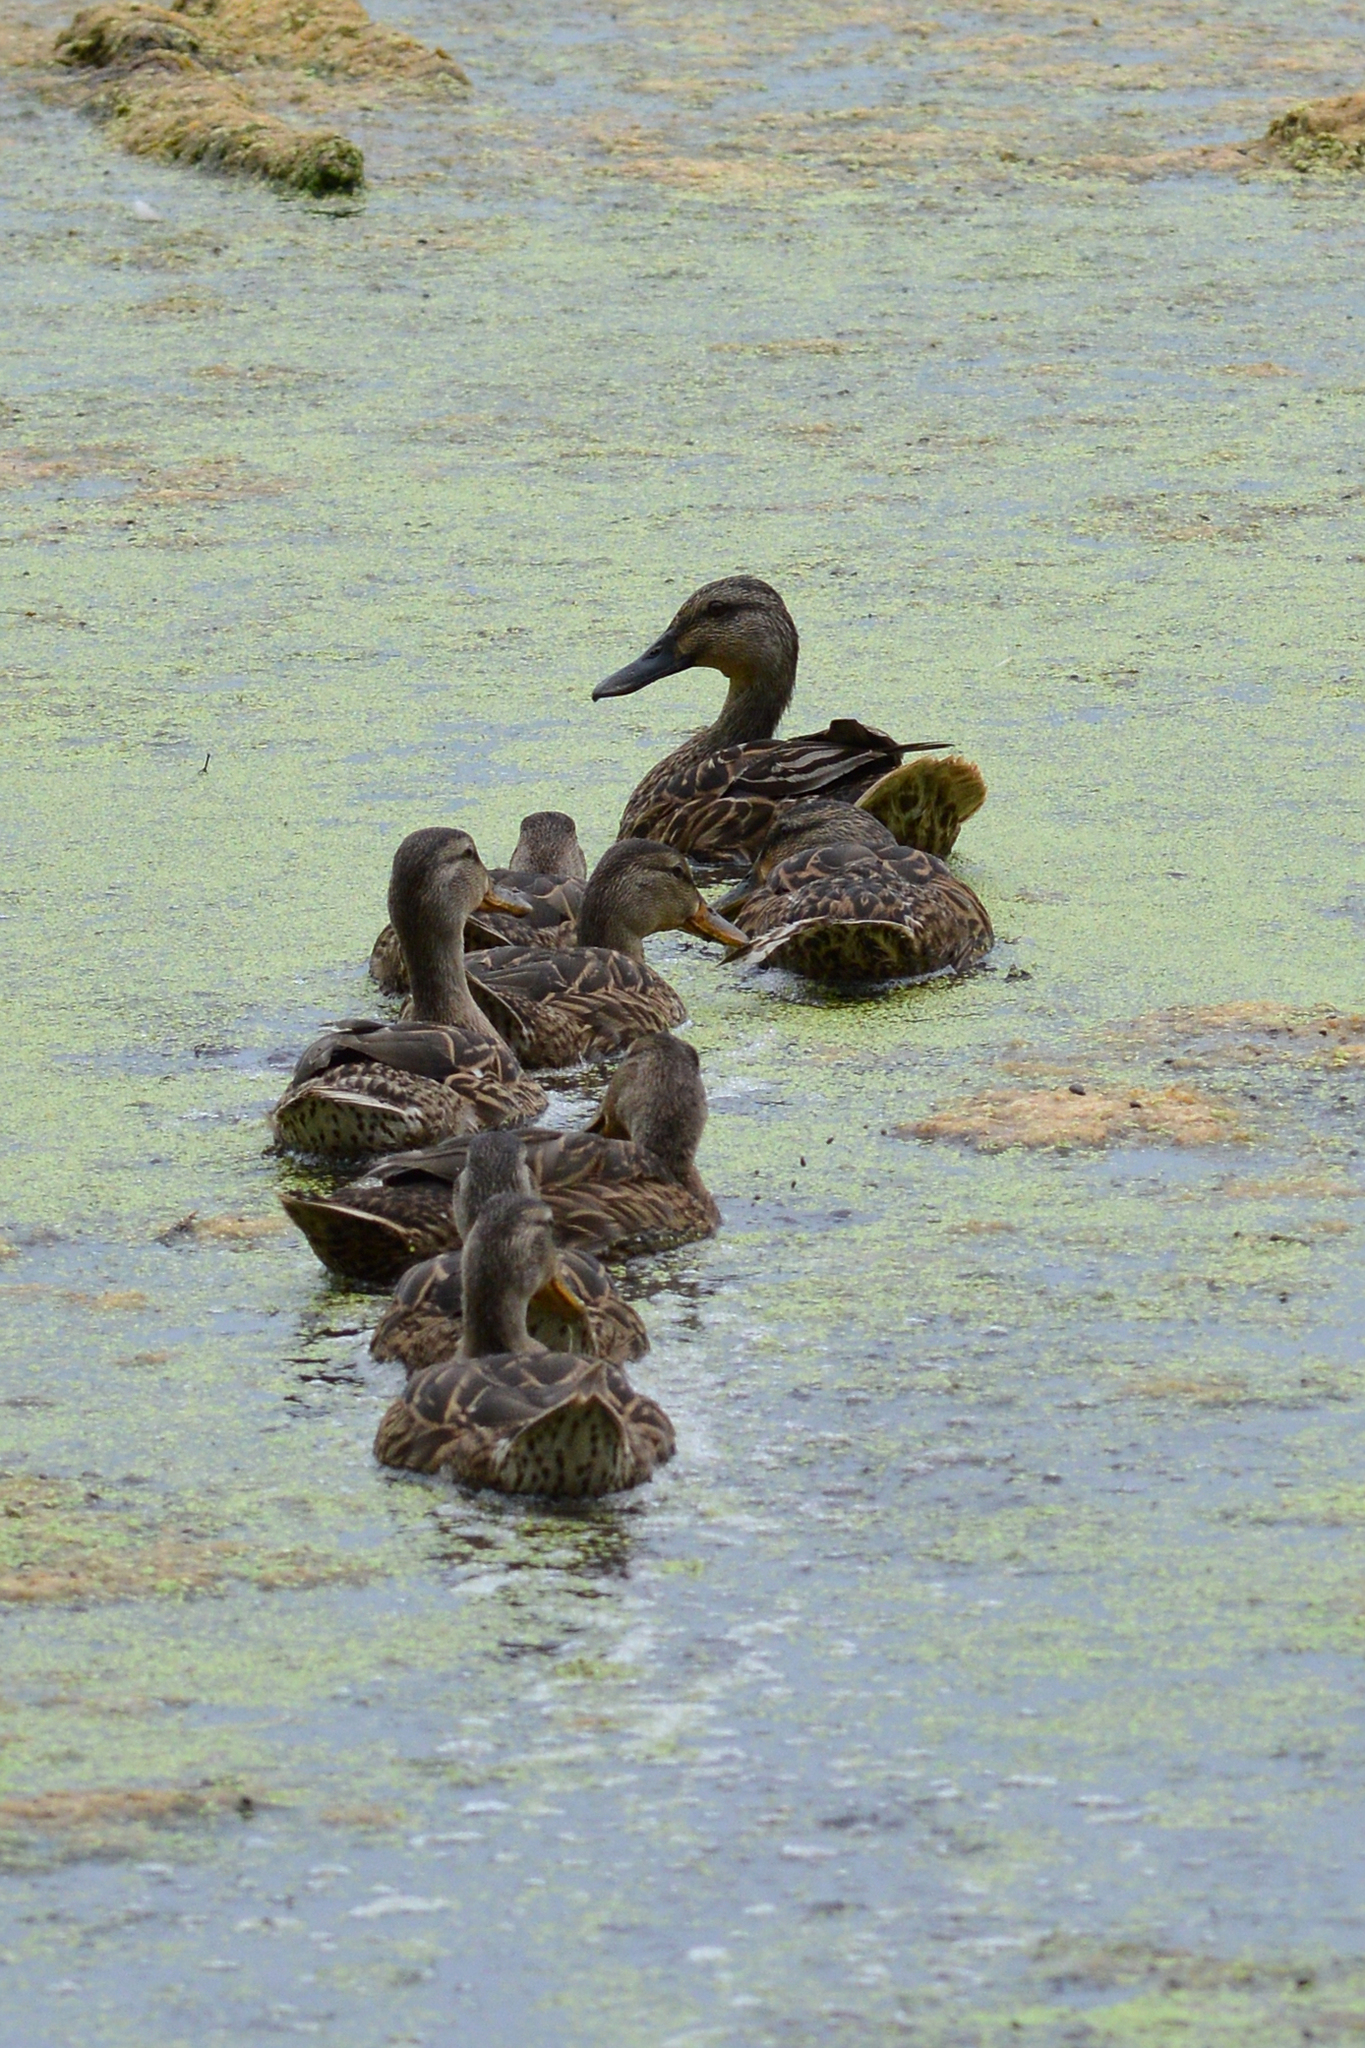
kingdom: Animalia
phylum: Chordata
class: Aves
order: Anseriformes
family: Anatidae
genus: Anas
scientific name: Anas platyrhynchos
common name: Mallard
